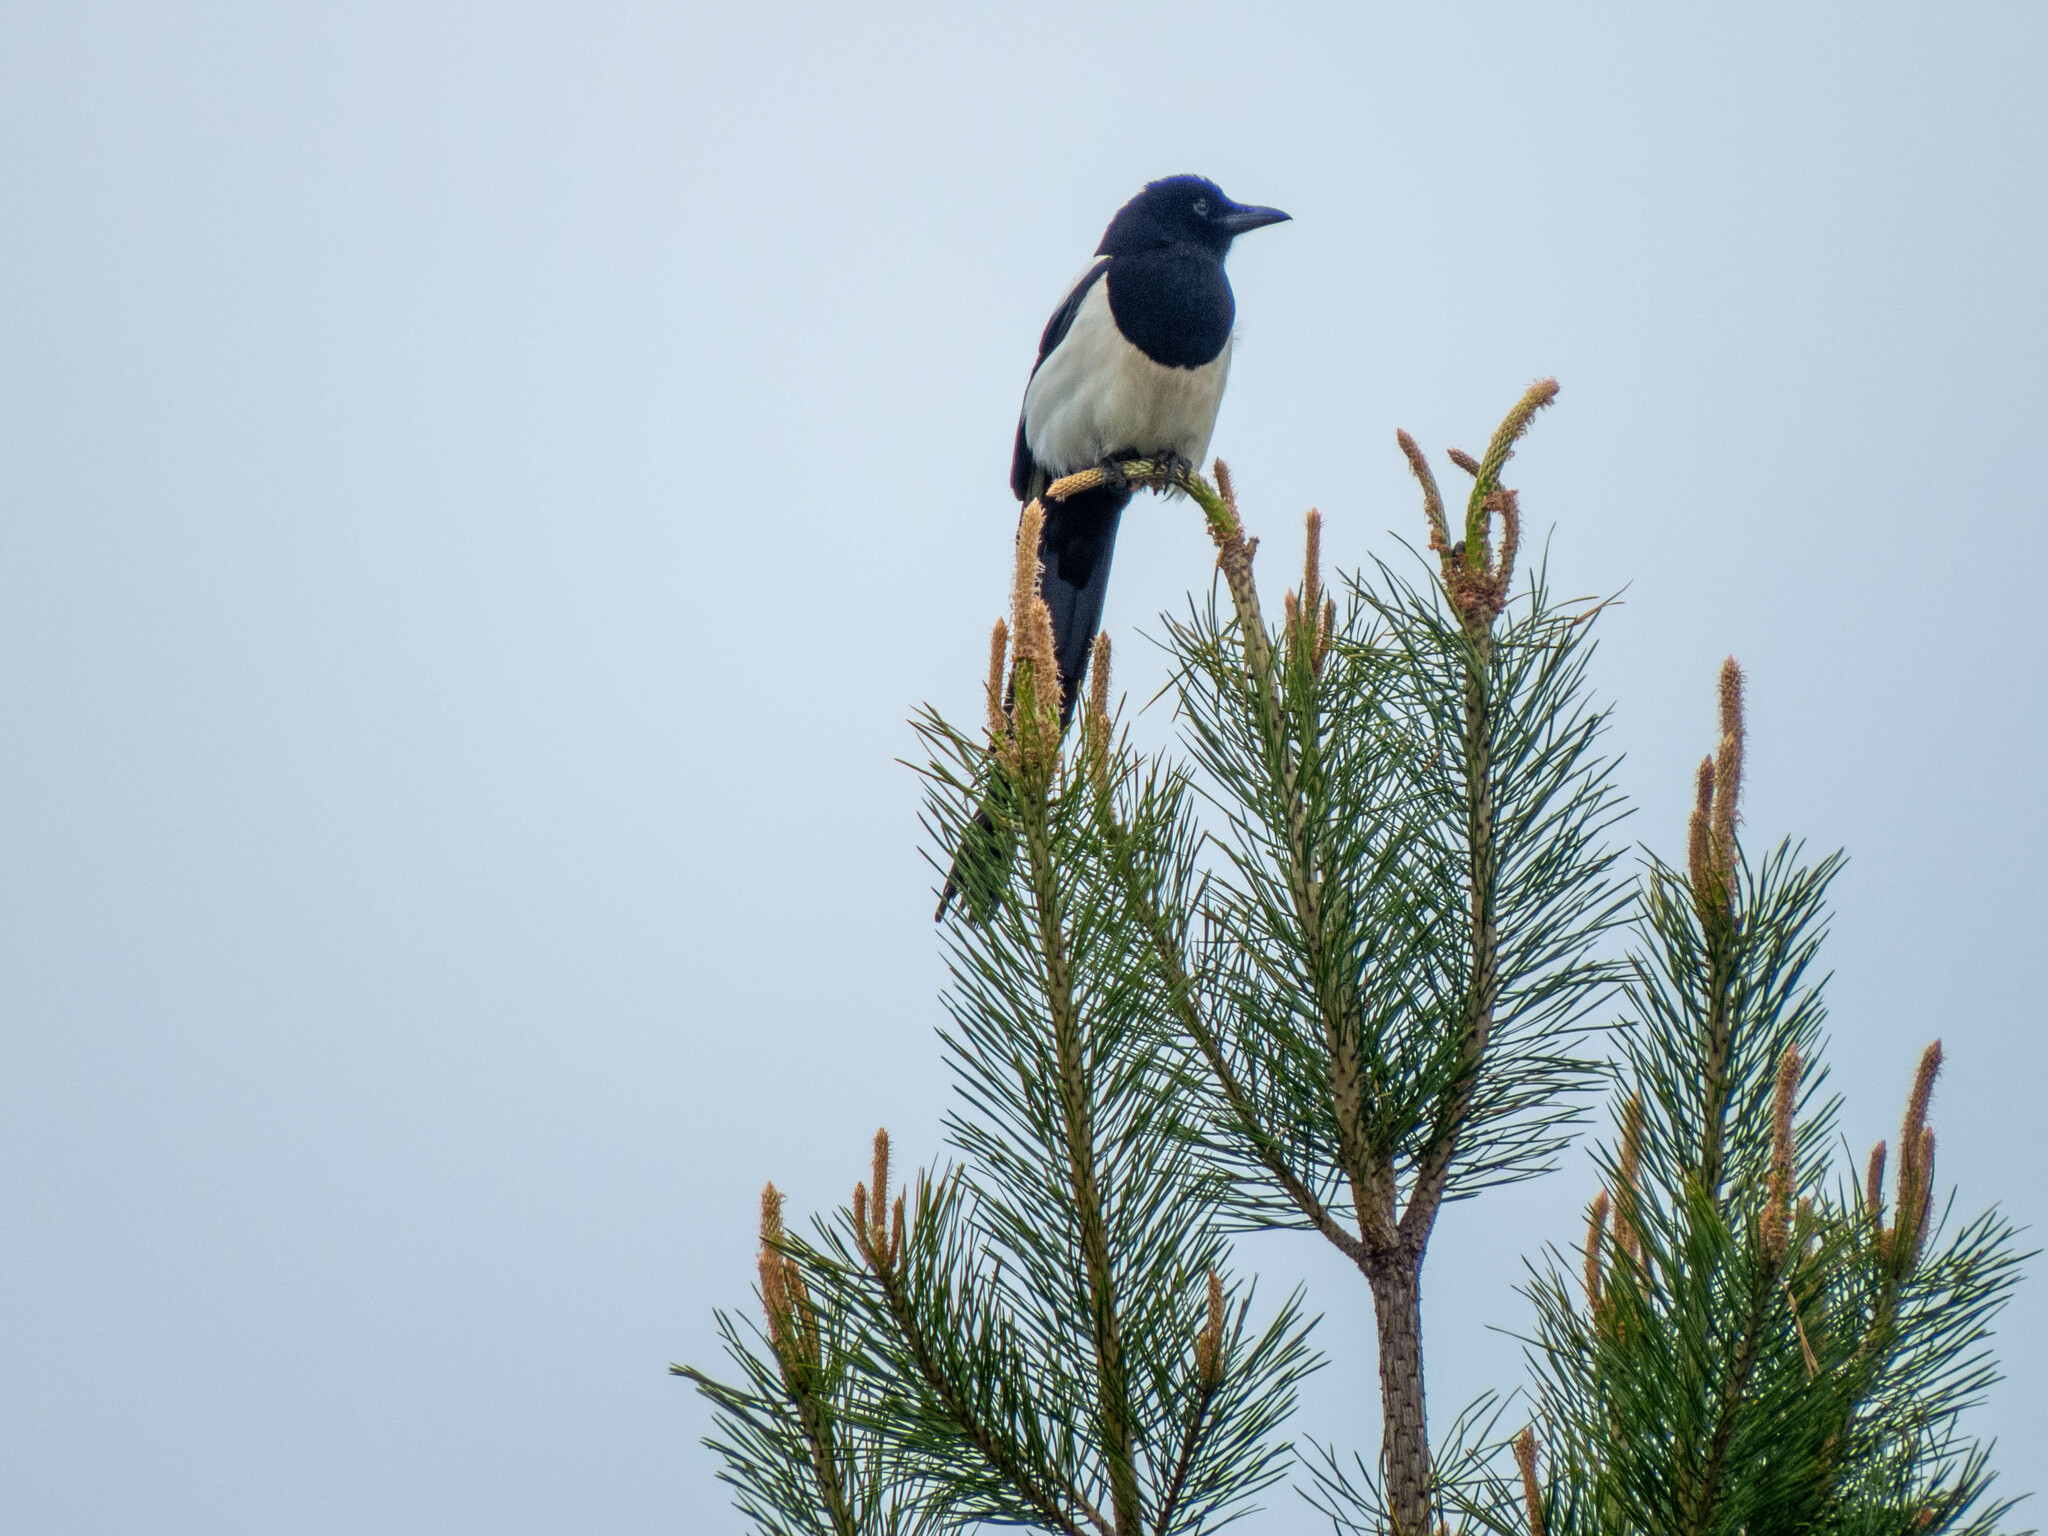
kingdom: Animalia
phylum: Chordata
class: Aves
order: Passeriformes
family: Corvidae
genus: Pica
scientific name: Pica pica
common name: Eurasian magpie
